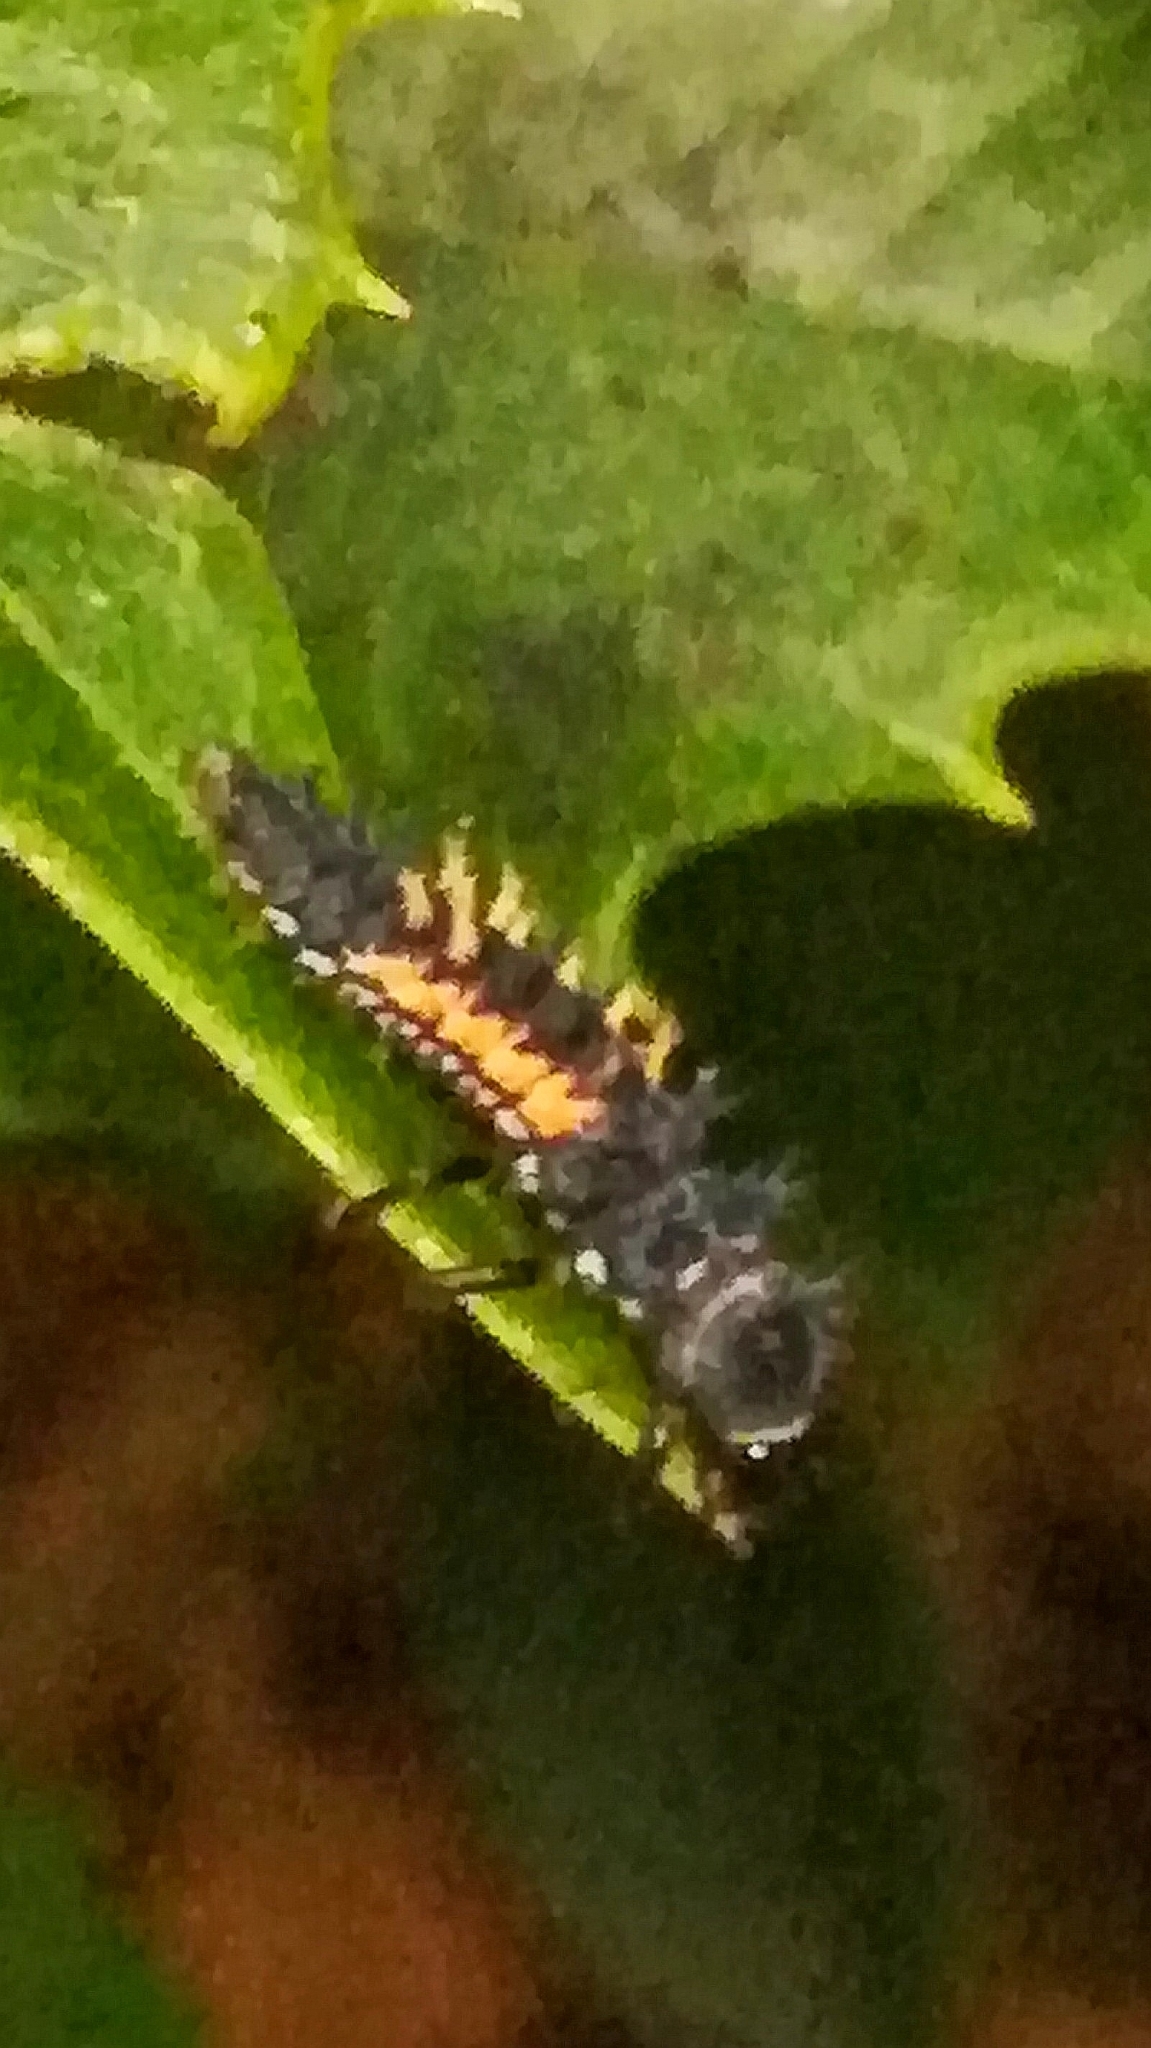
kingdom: Animalia
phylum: Arthropoda
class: Insecta
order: Coleoptera
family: Coccinellidae
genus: Harmonia
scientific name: Harmonia axyridis
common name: Harlequin ladybird
